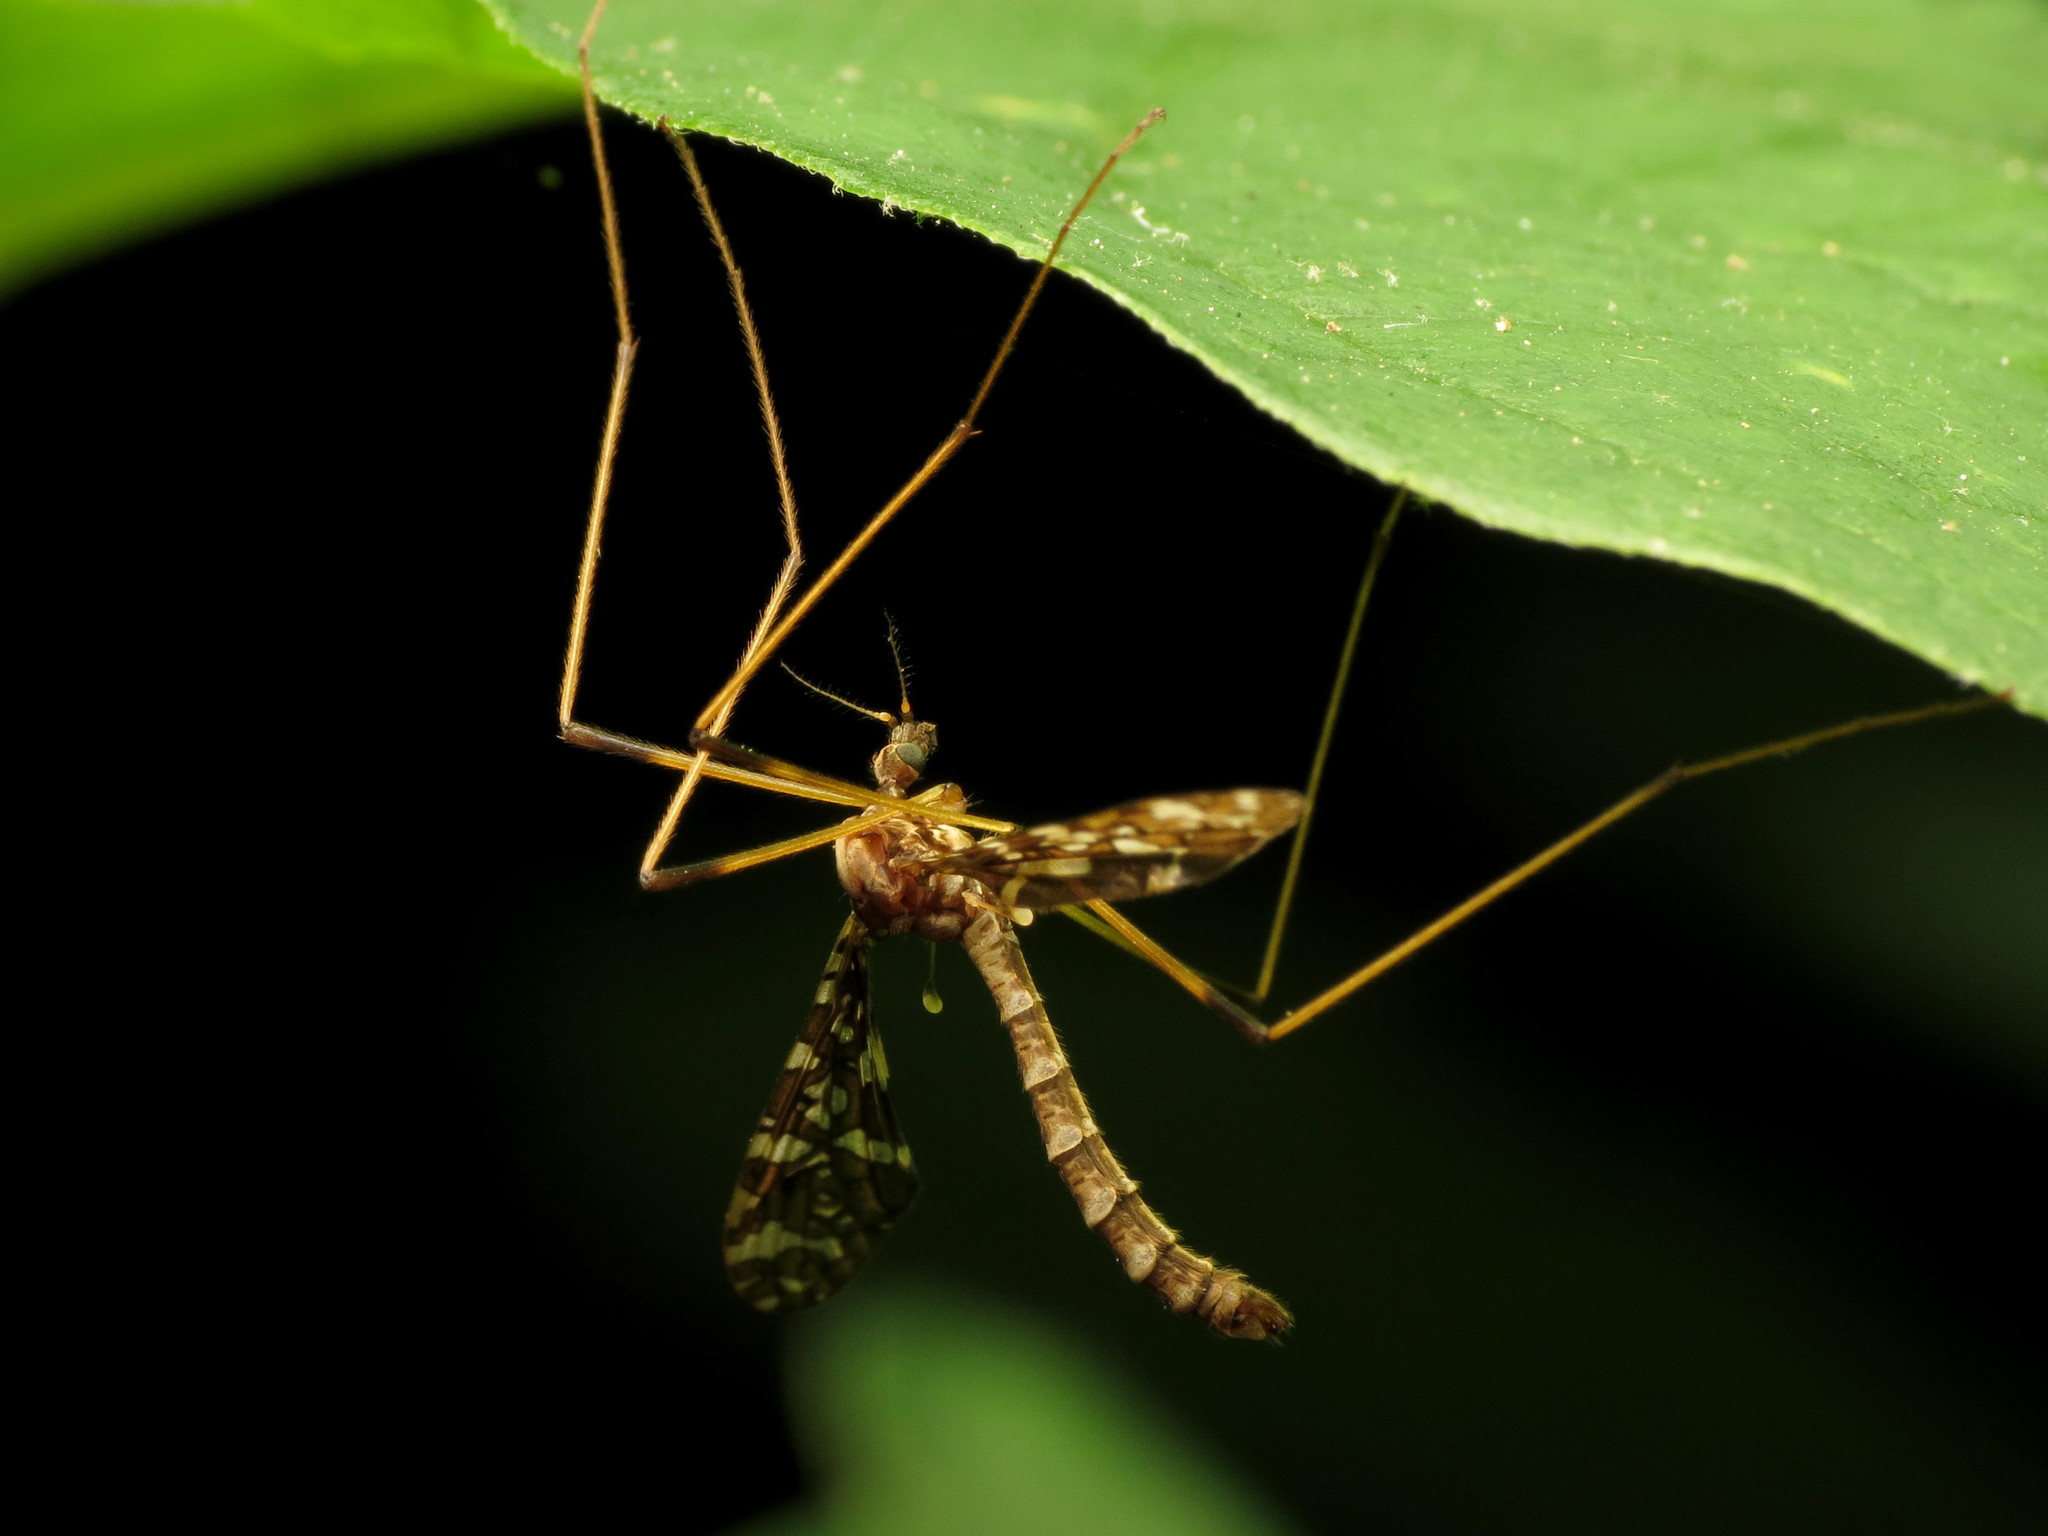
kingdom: Animalia
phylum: Arthropoda
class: Insecta
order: Diptera
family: Limoniidae
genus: Epiphragma
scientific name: Epiphragma fasciapenne
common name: Band-winged crane fly
